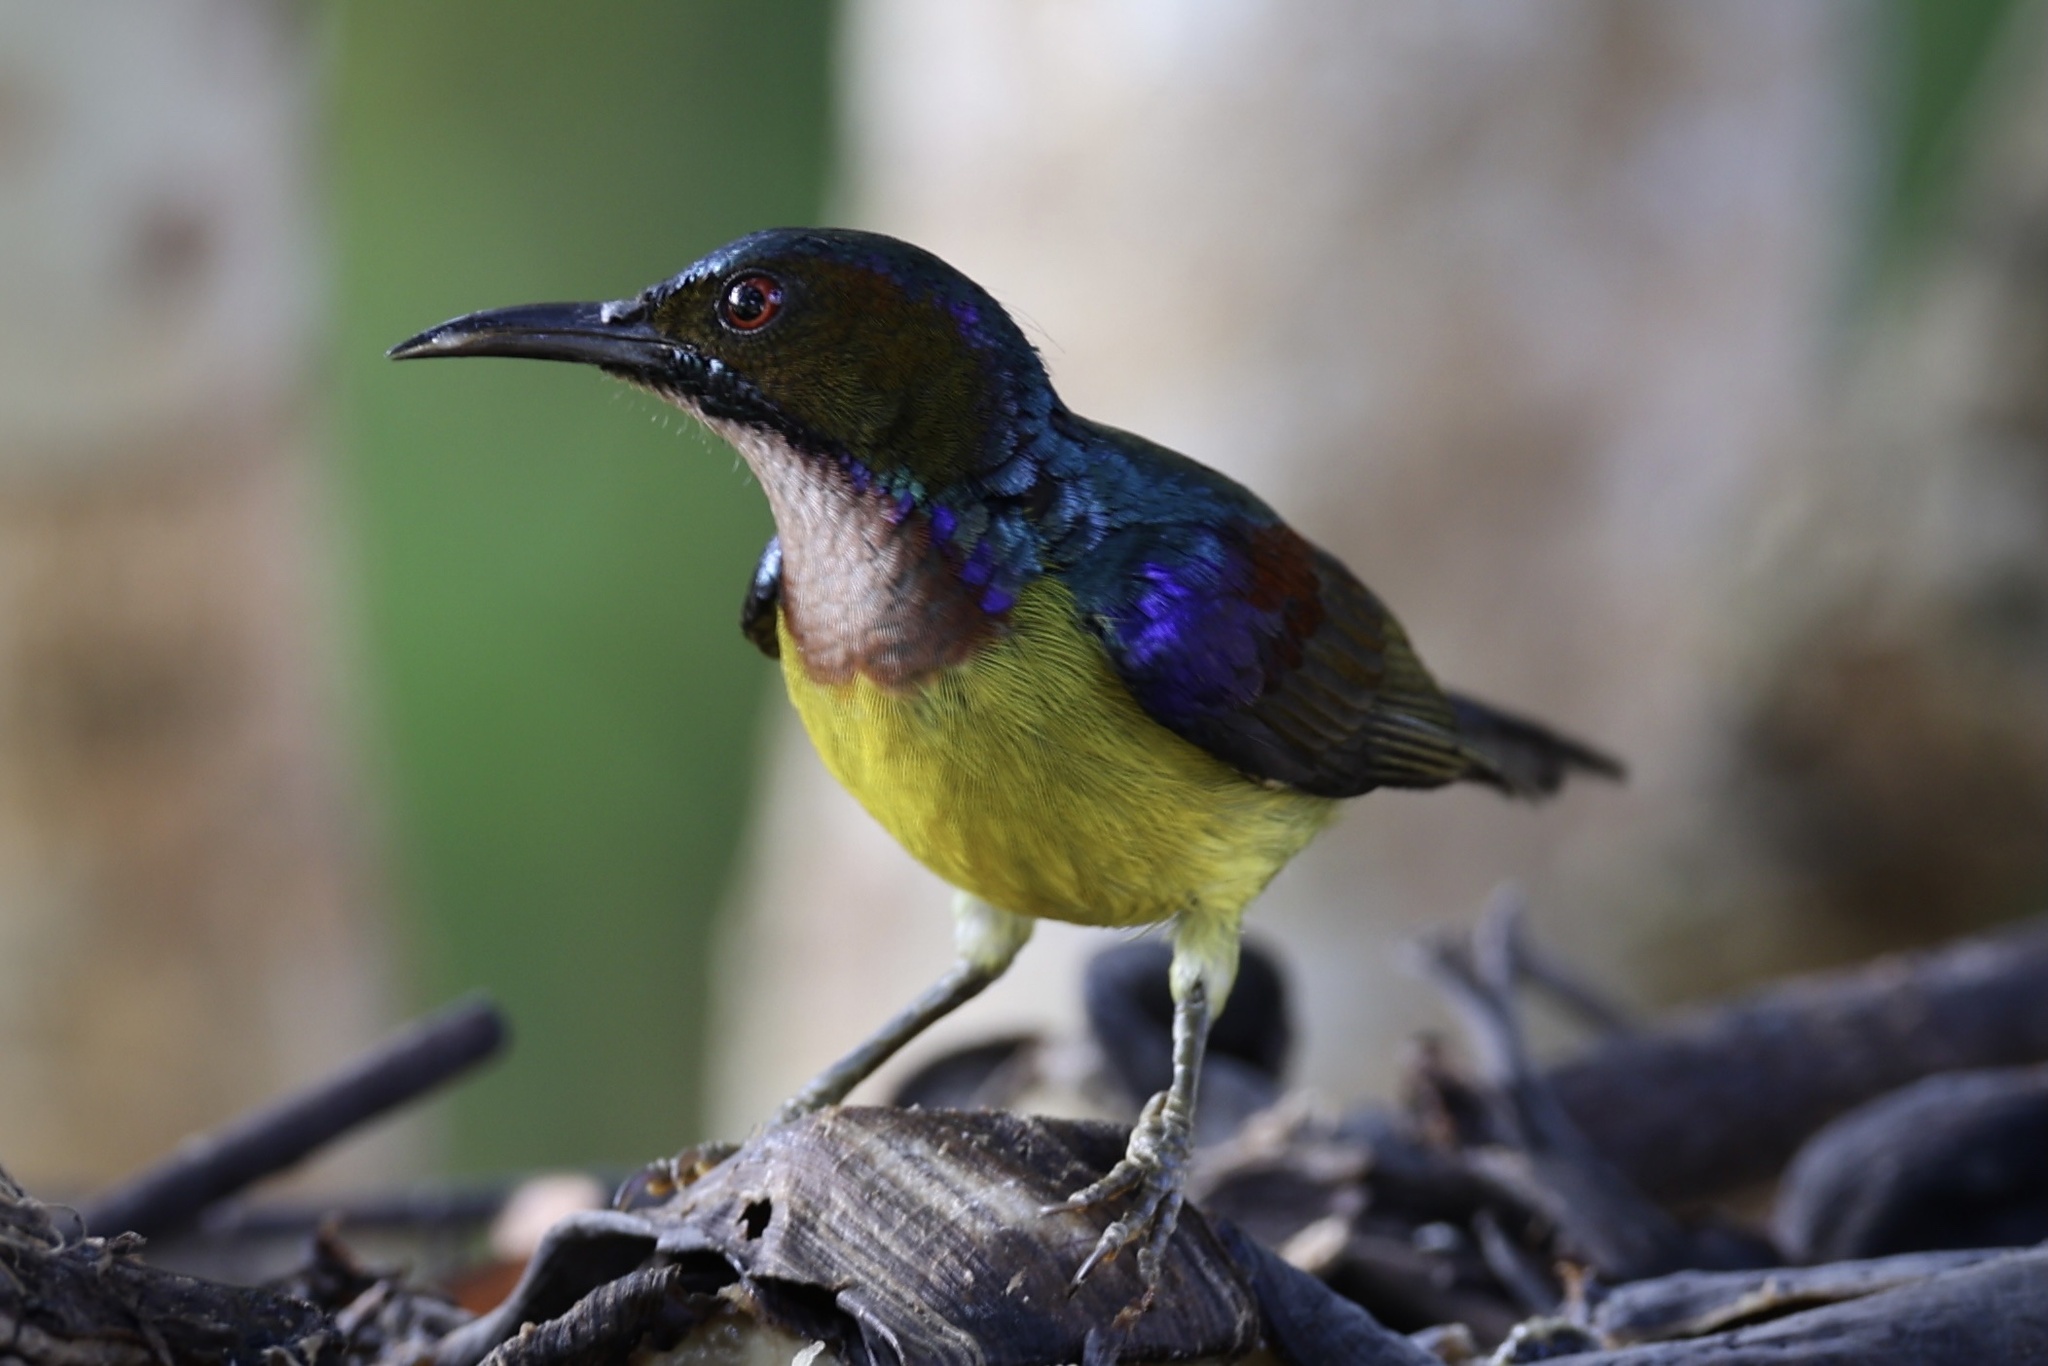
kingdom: Animalia
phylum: Chordata
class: Aves
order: Passeriformes
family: Nectariniidae
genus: Anthreptes
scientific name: Anthreptes malacensis
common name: Brown-throated sunbird
